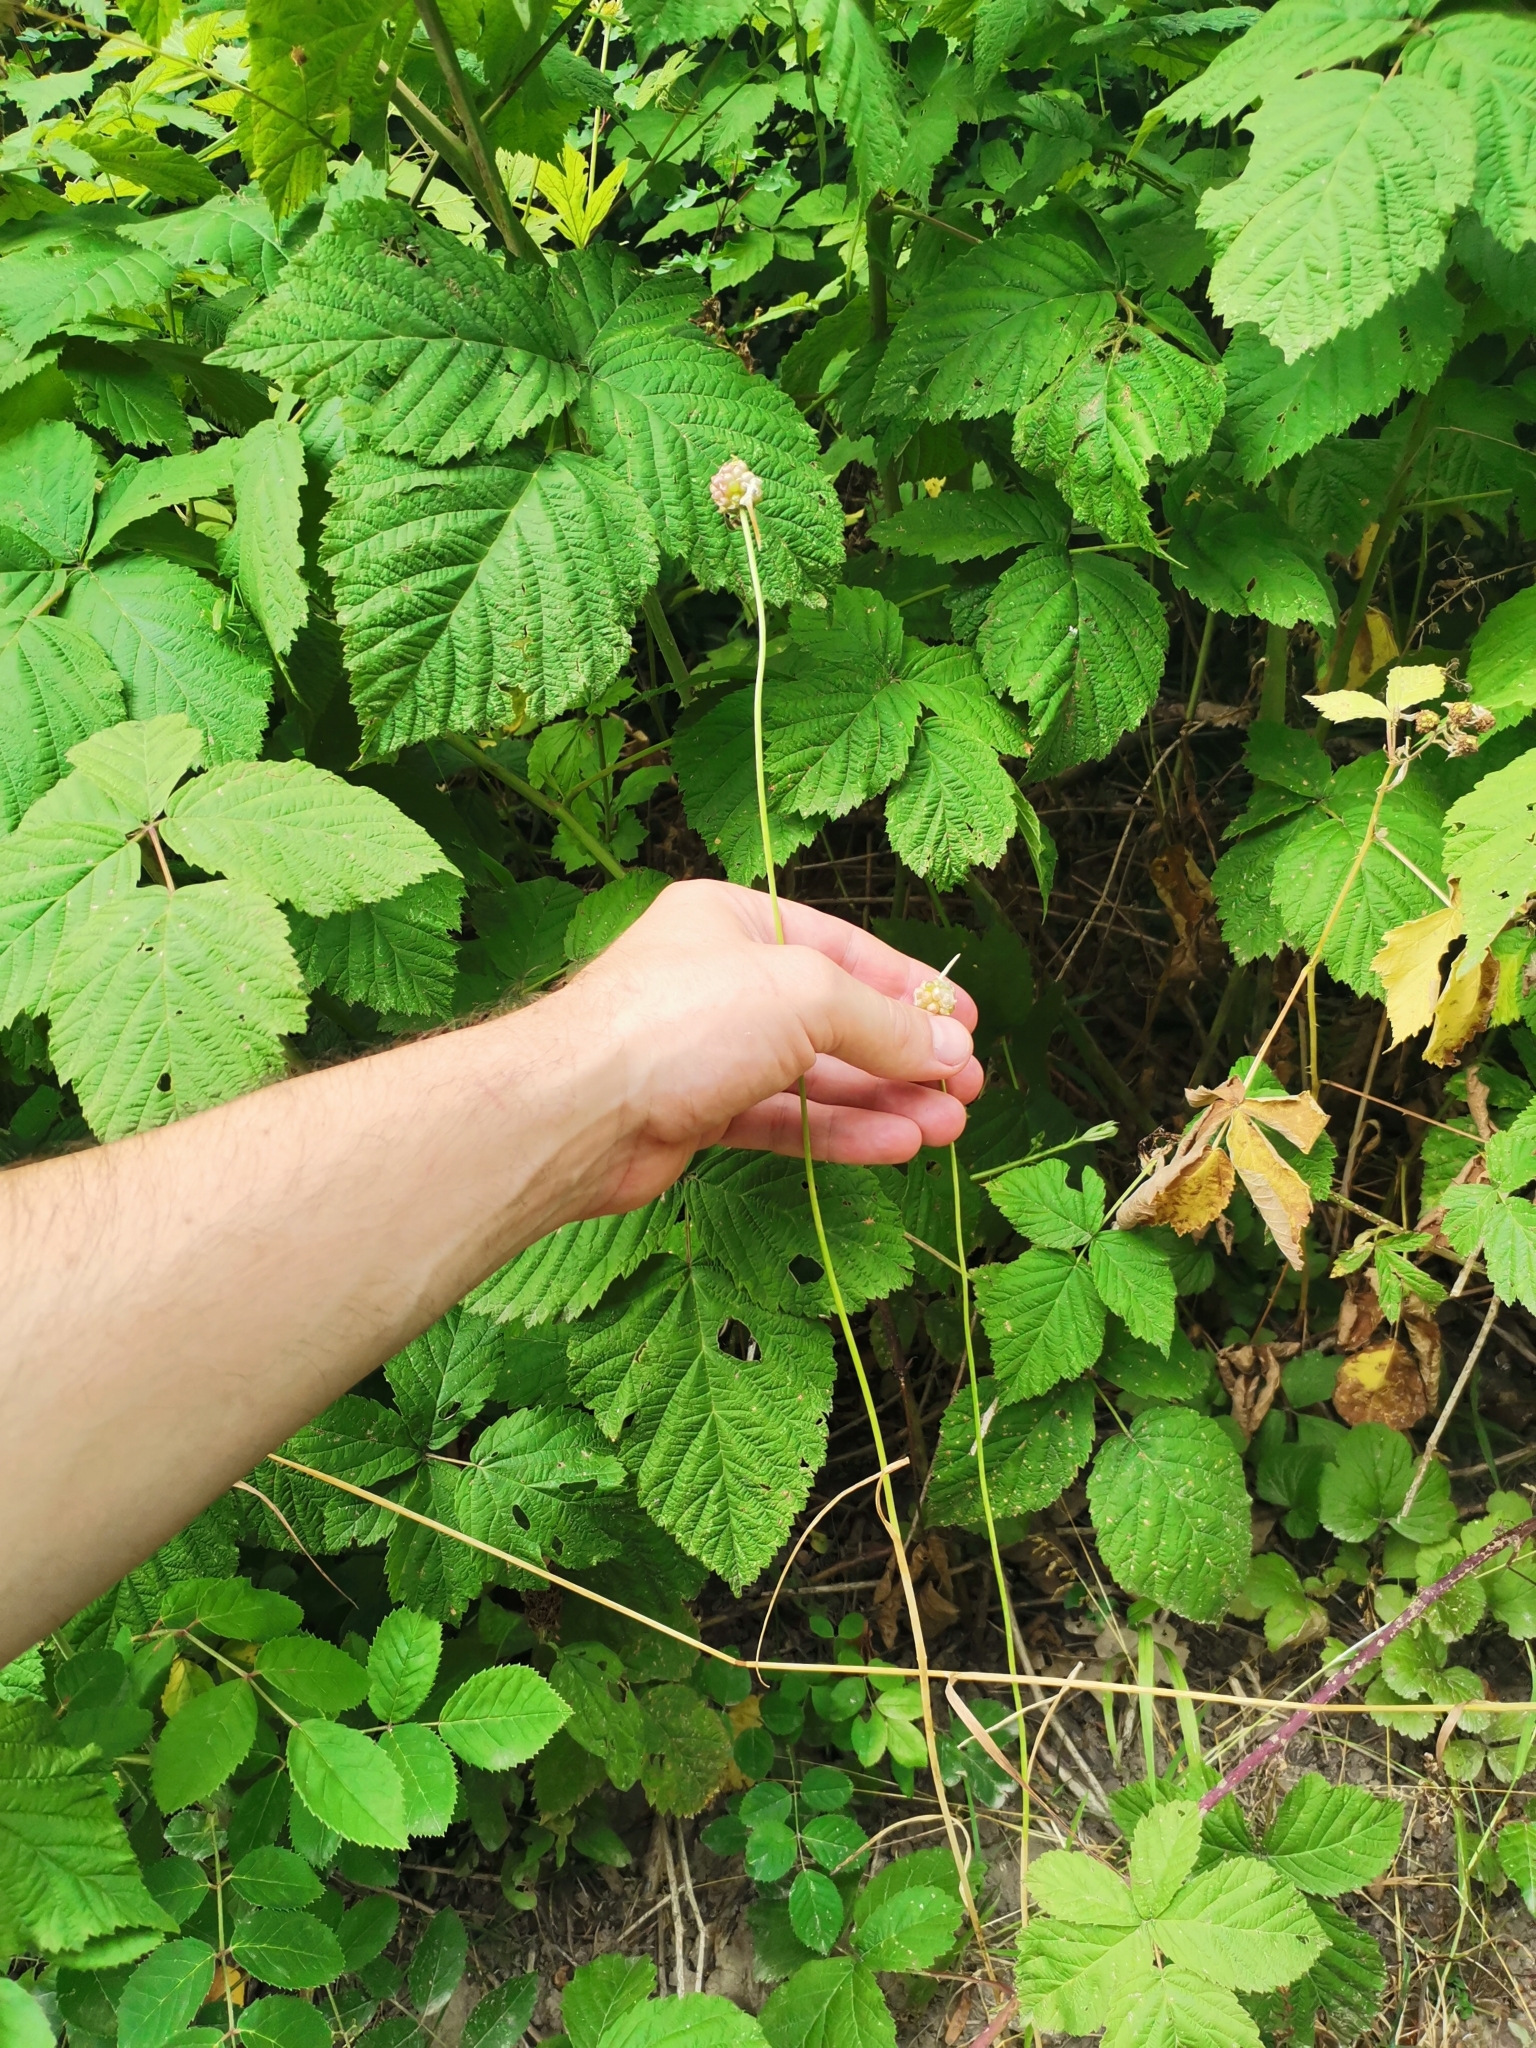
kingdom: Plantae
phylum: Tracheophyta
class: Liliopsida
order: Asparagales
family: Amaryllidaceae
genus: Allium
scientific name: Allium carinatum
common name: Keeled garlic
